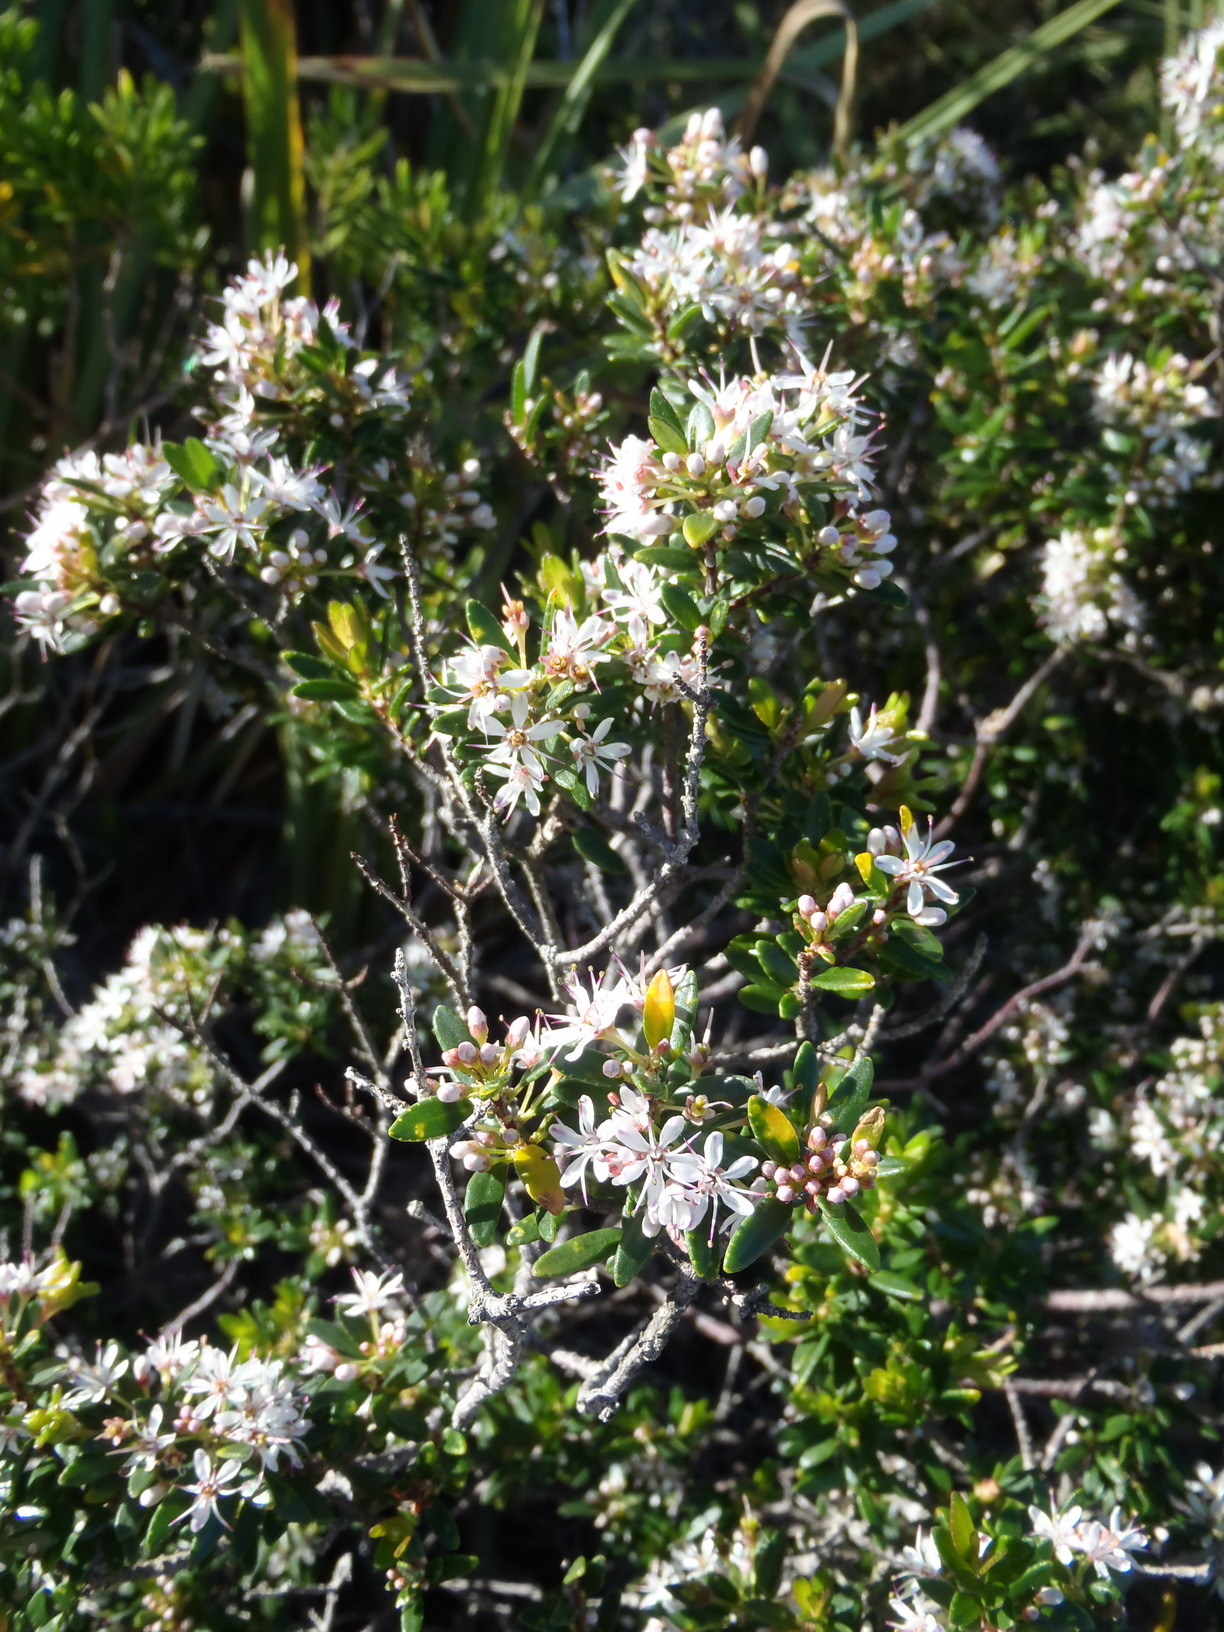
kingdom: Plantae
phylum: Tracheophyta
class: Magnoliopsida
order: Sapindales
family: Rutaceae
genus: Agathosma
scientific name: Agathosma ovata
